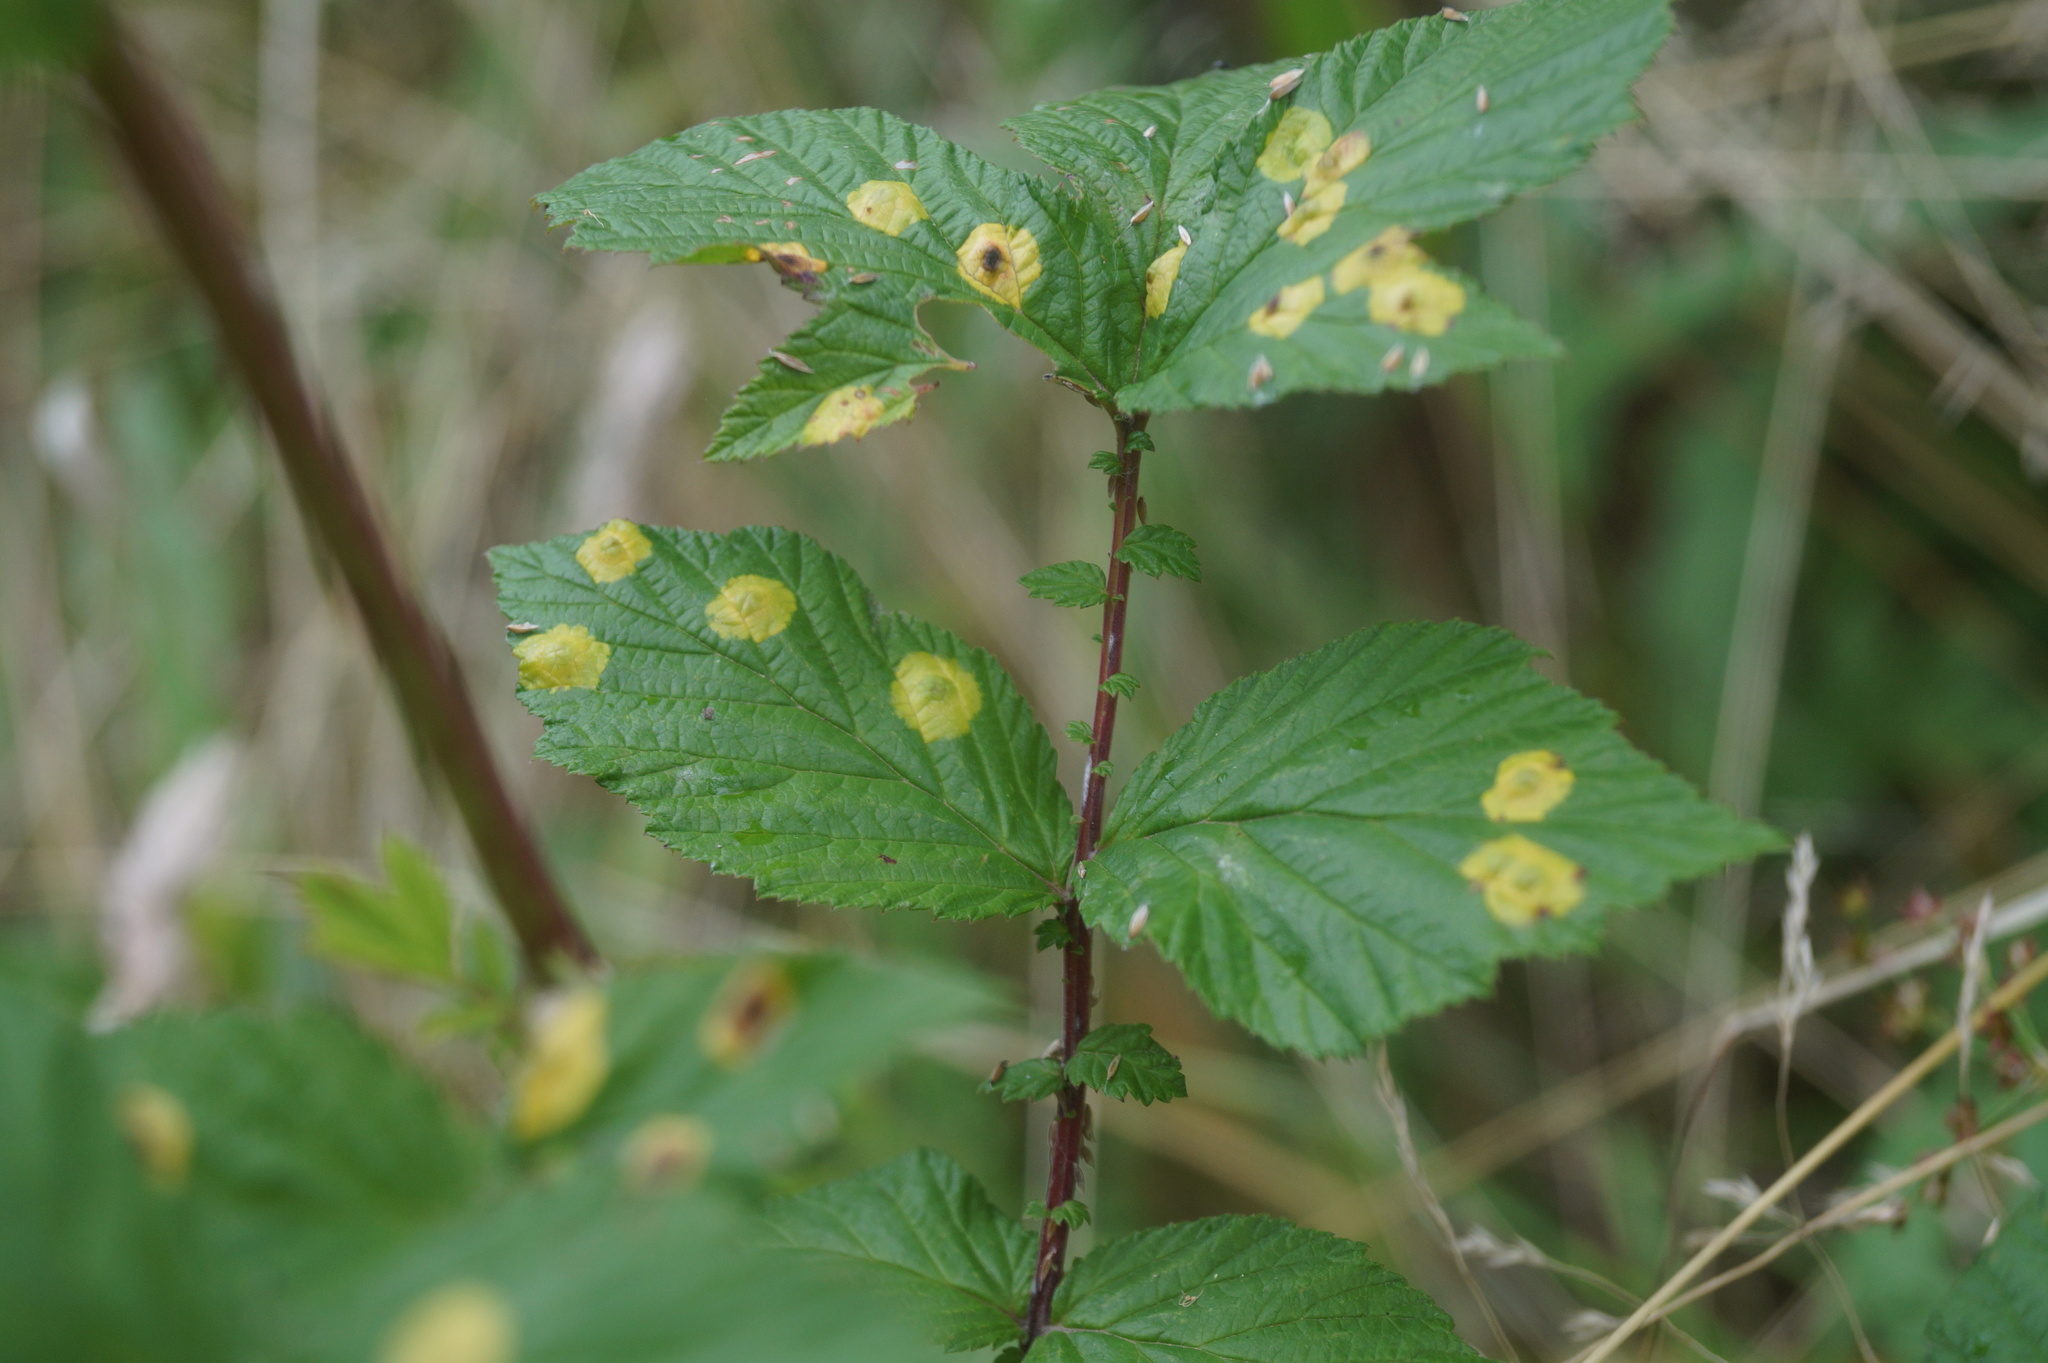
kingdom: Animalia
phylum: Arthropoda
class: Insecta
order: Diptera
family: Cecidomyiidae
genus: Dasineura
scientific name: Dasineura pustulans
